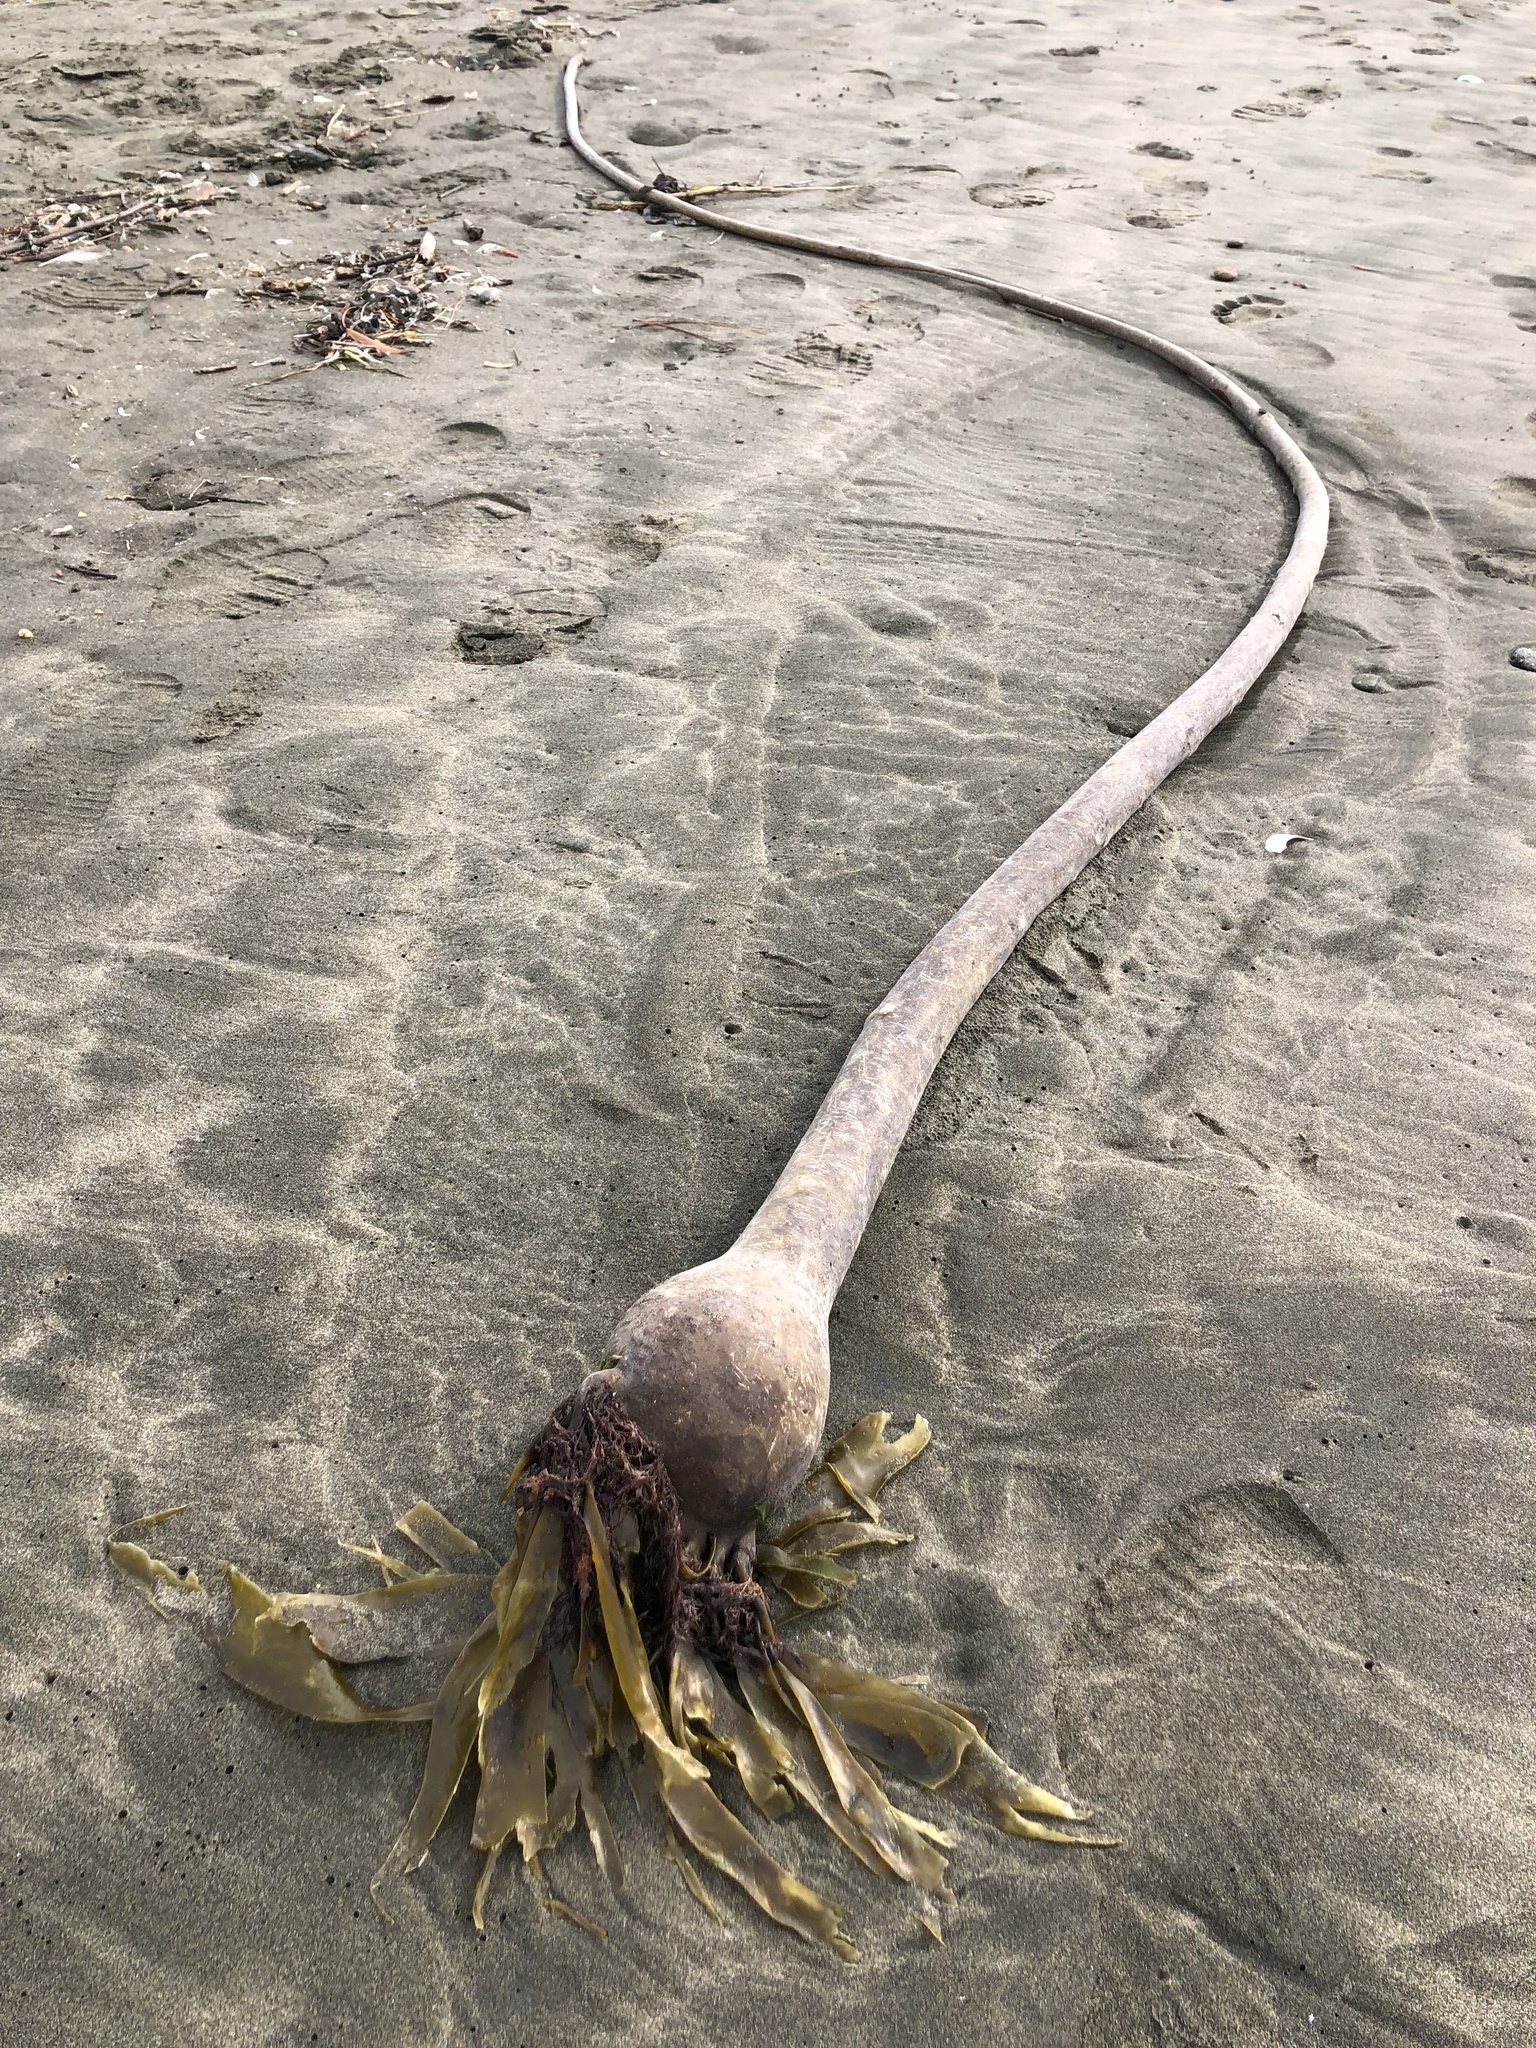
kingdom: Chromista
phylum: Ochrophyta
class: Phaeophyceae
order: Laminariales
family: Laminariaceae
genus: Nereocystis
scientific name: Nereocystis luetkeana
